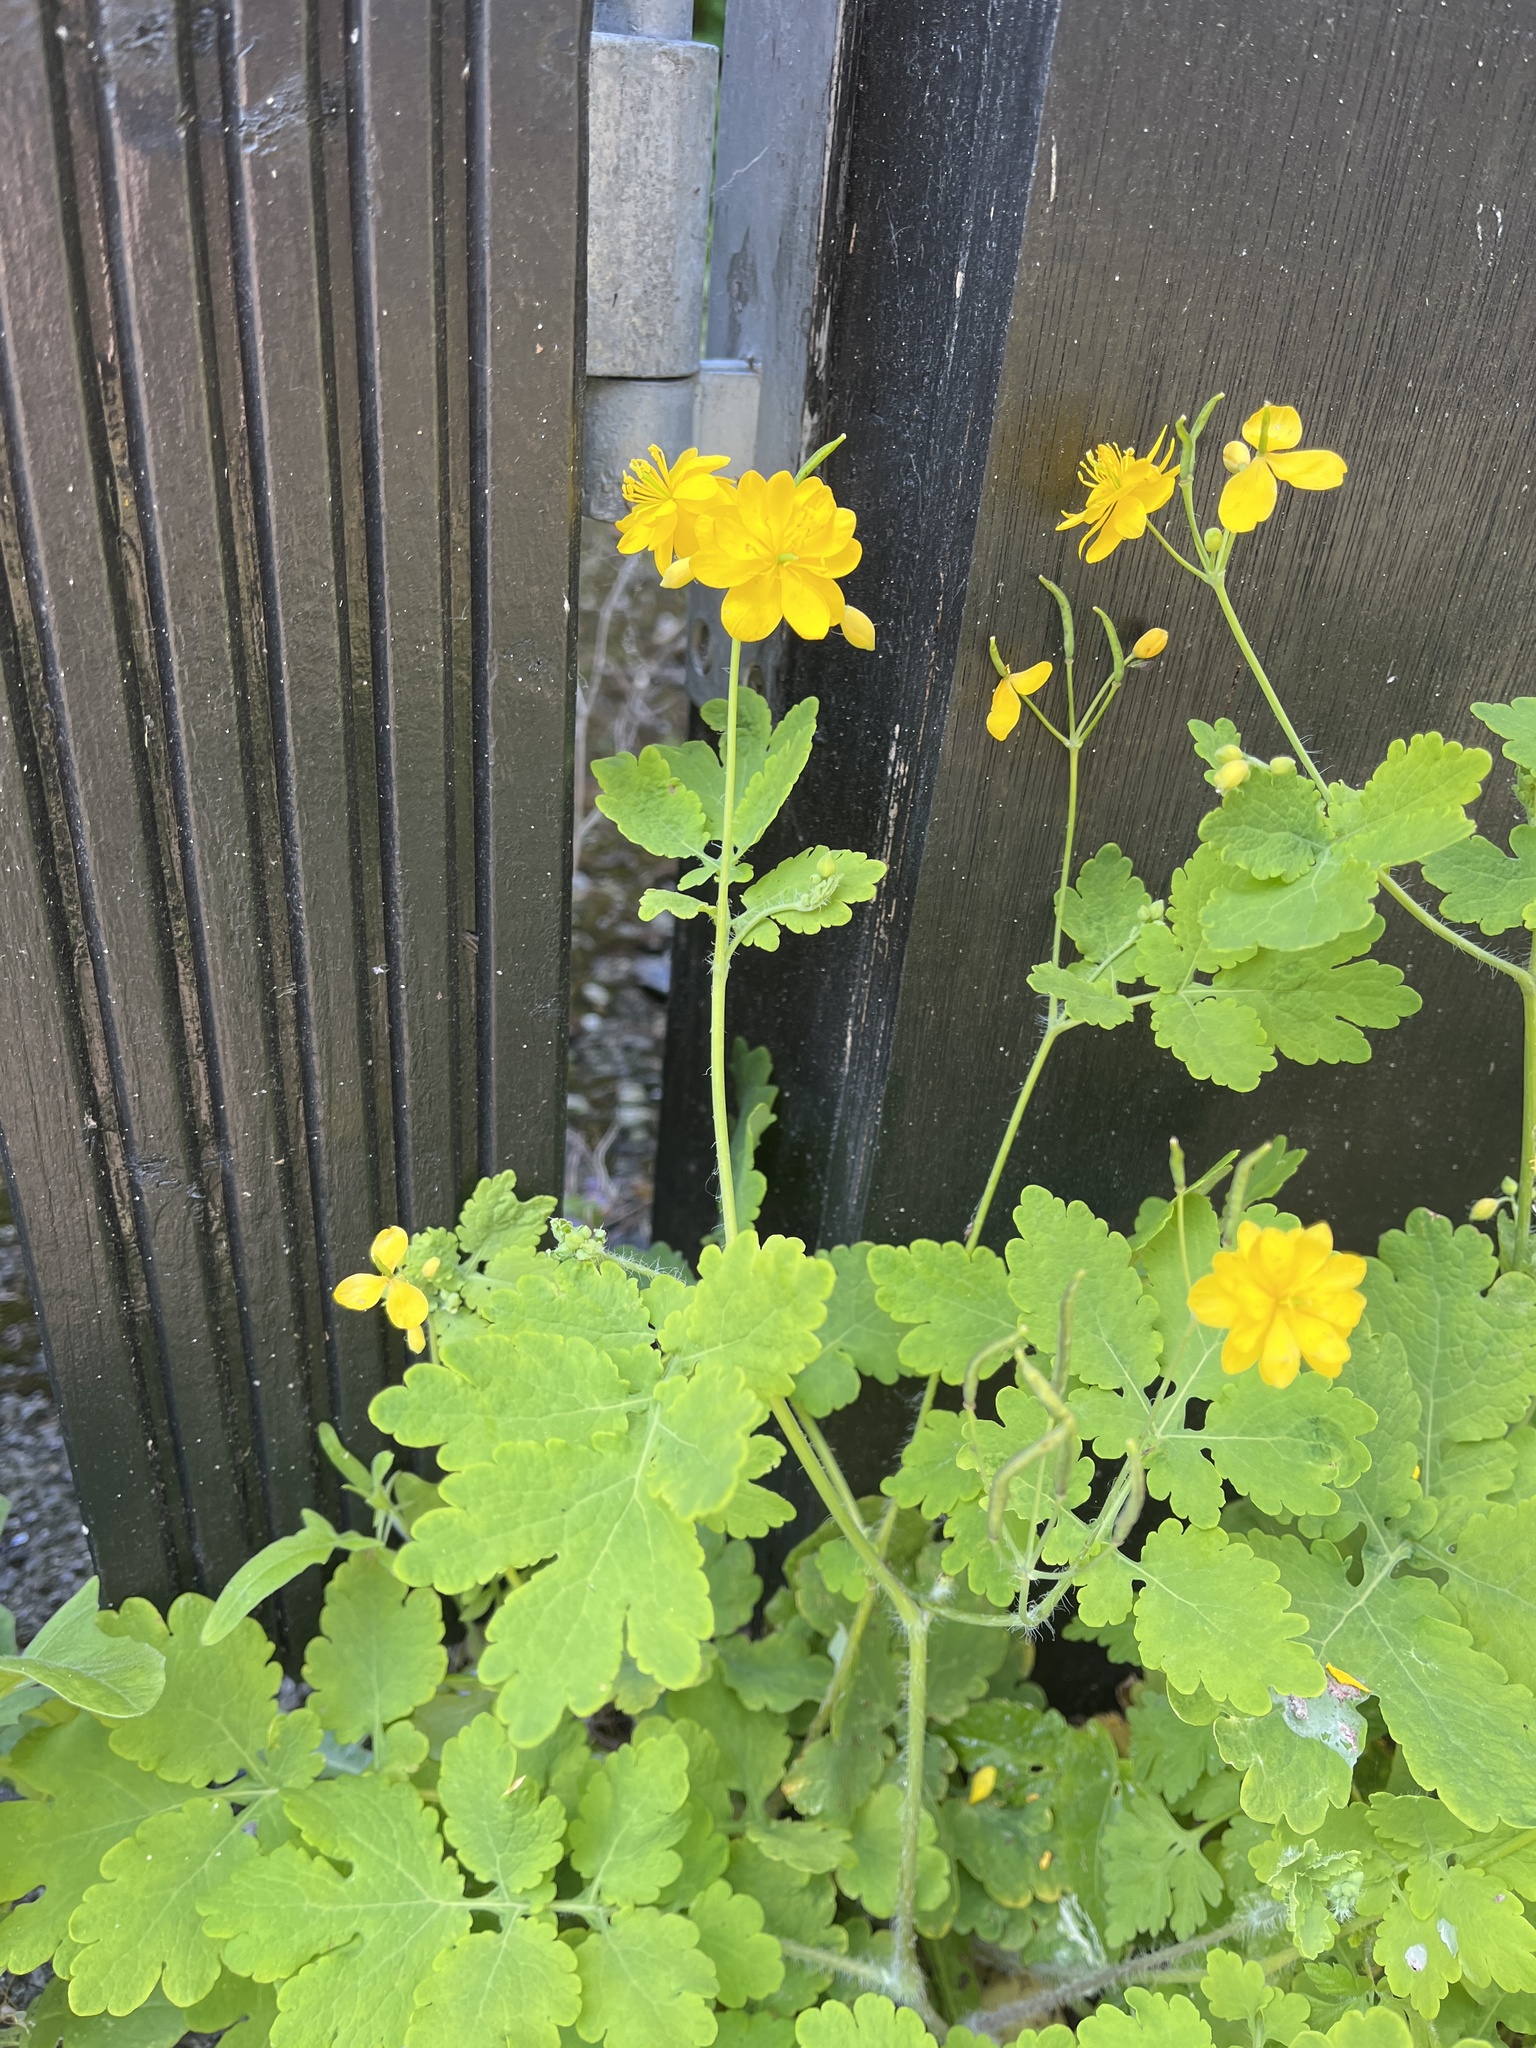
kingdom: Plantae
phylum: Tracheophyta
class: Magnoliopsida
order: Ranunculales
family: Papaveraceae
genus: Chelidonium
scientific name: Chelidonium majus
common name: Greater celandine
